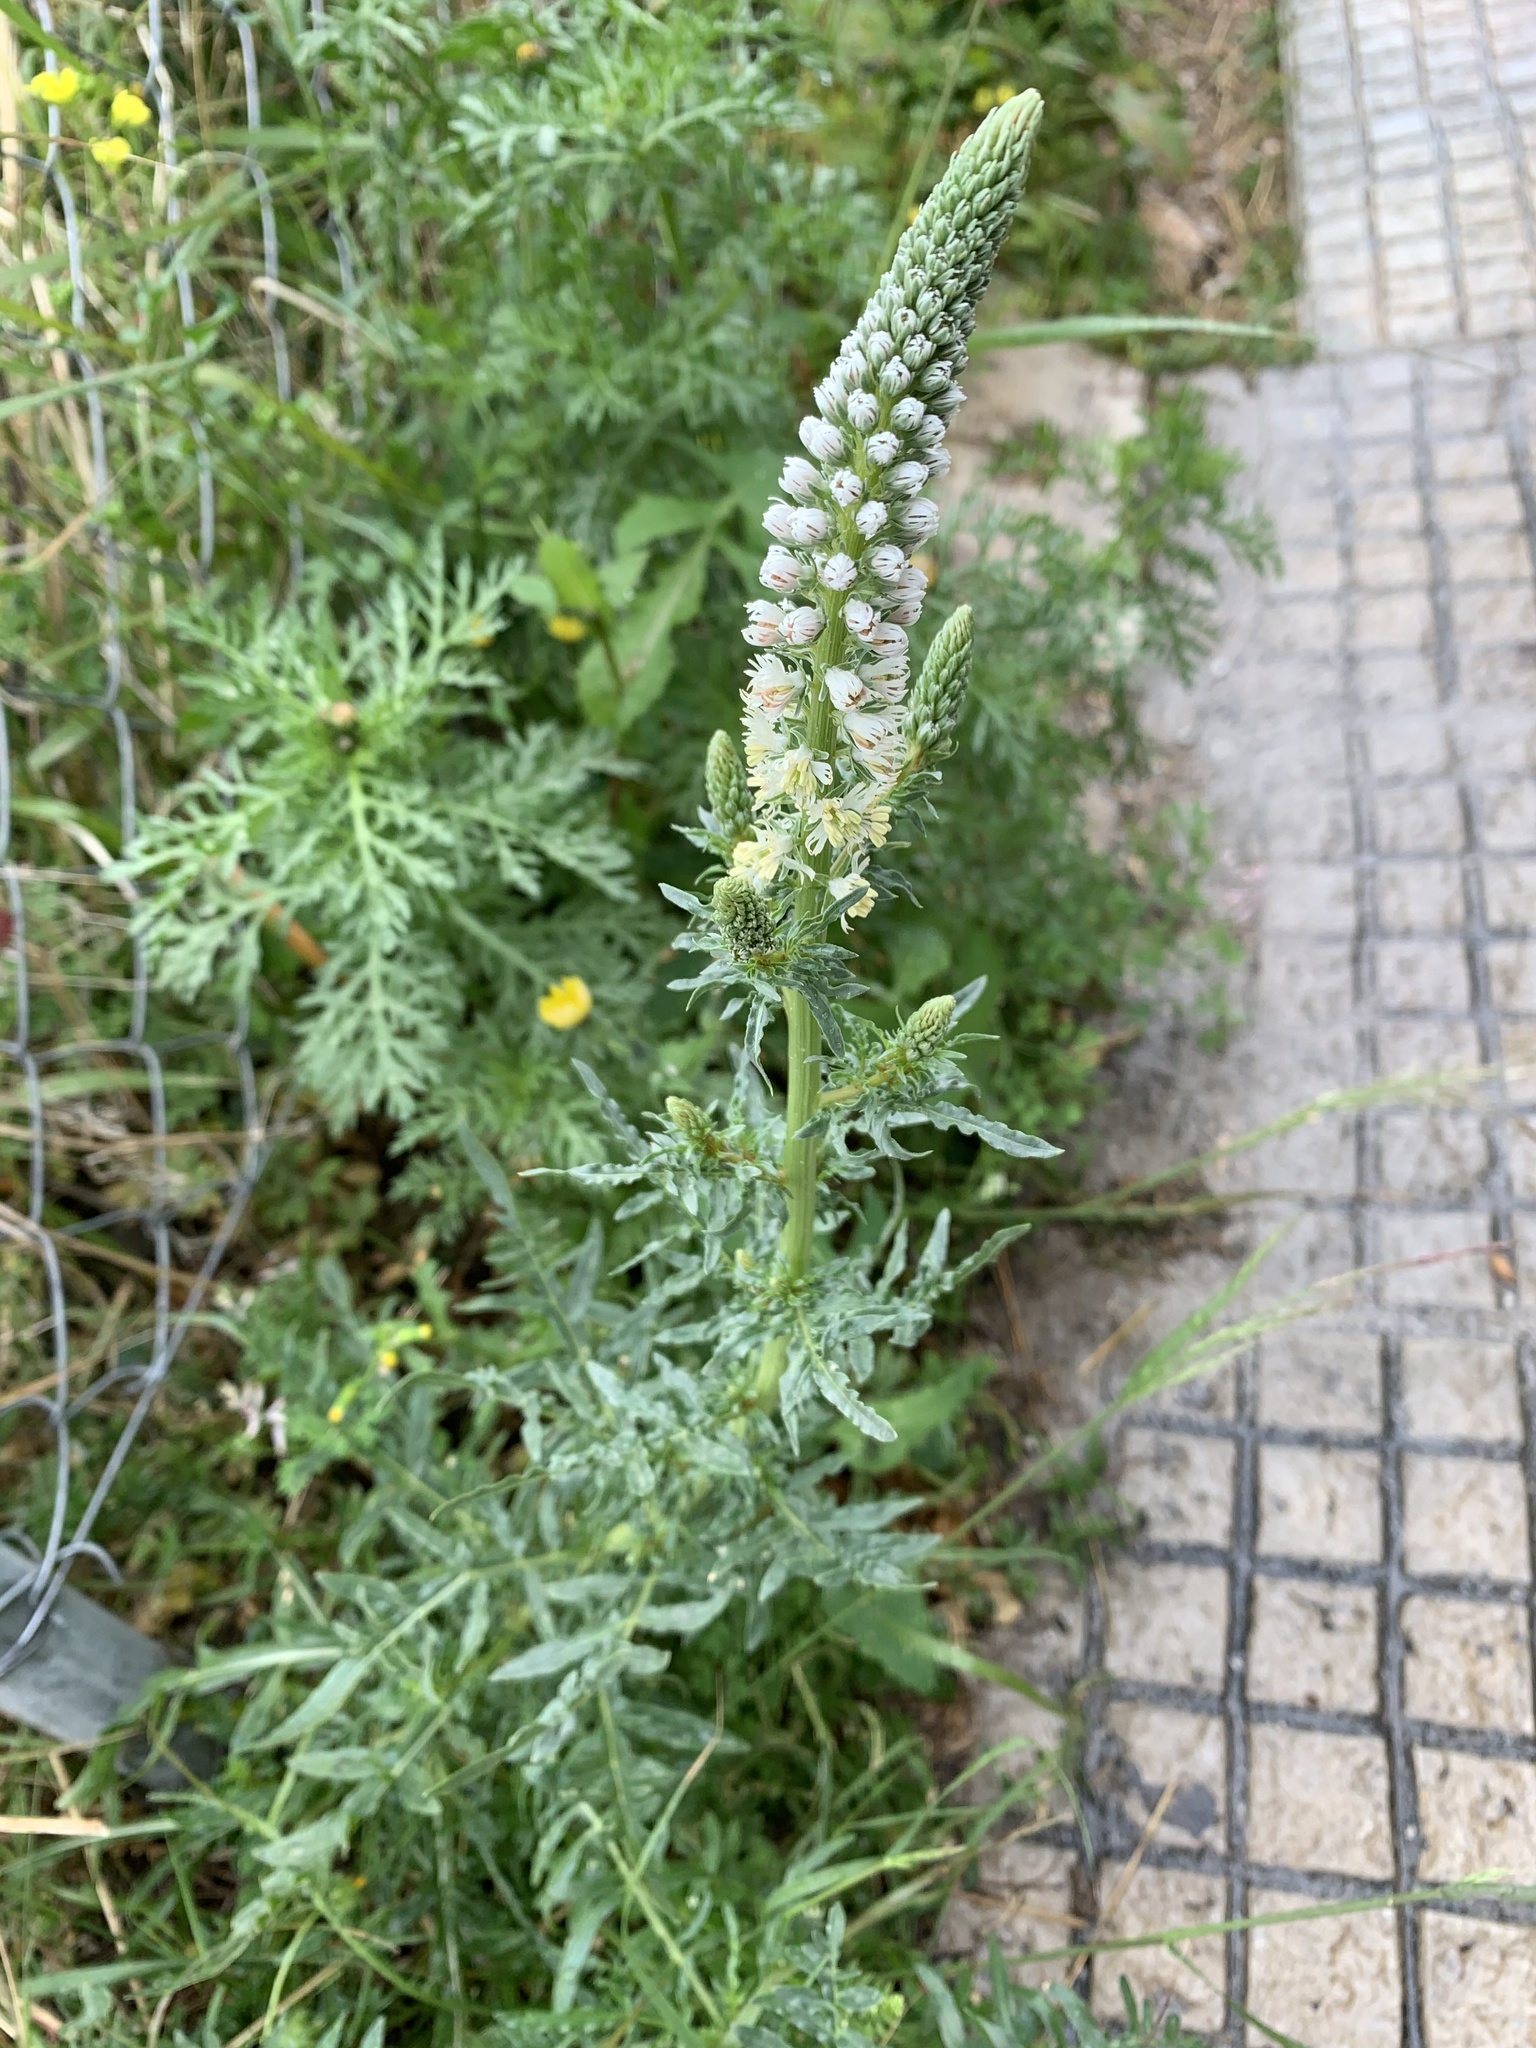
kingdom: Plantae
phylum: Tracheophyta
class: Magnoliopsida
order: Brassicales
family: Resedaceae
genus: Reseda
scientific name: Reseda alba
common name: White mignonette
